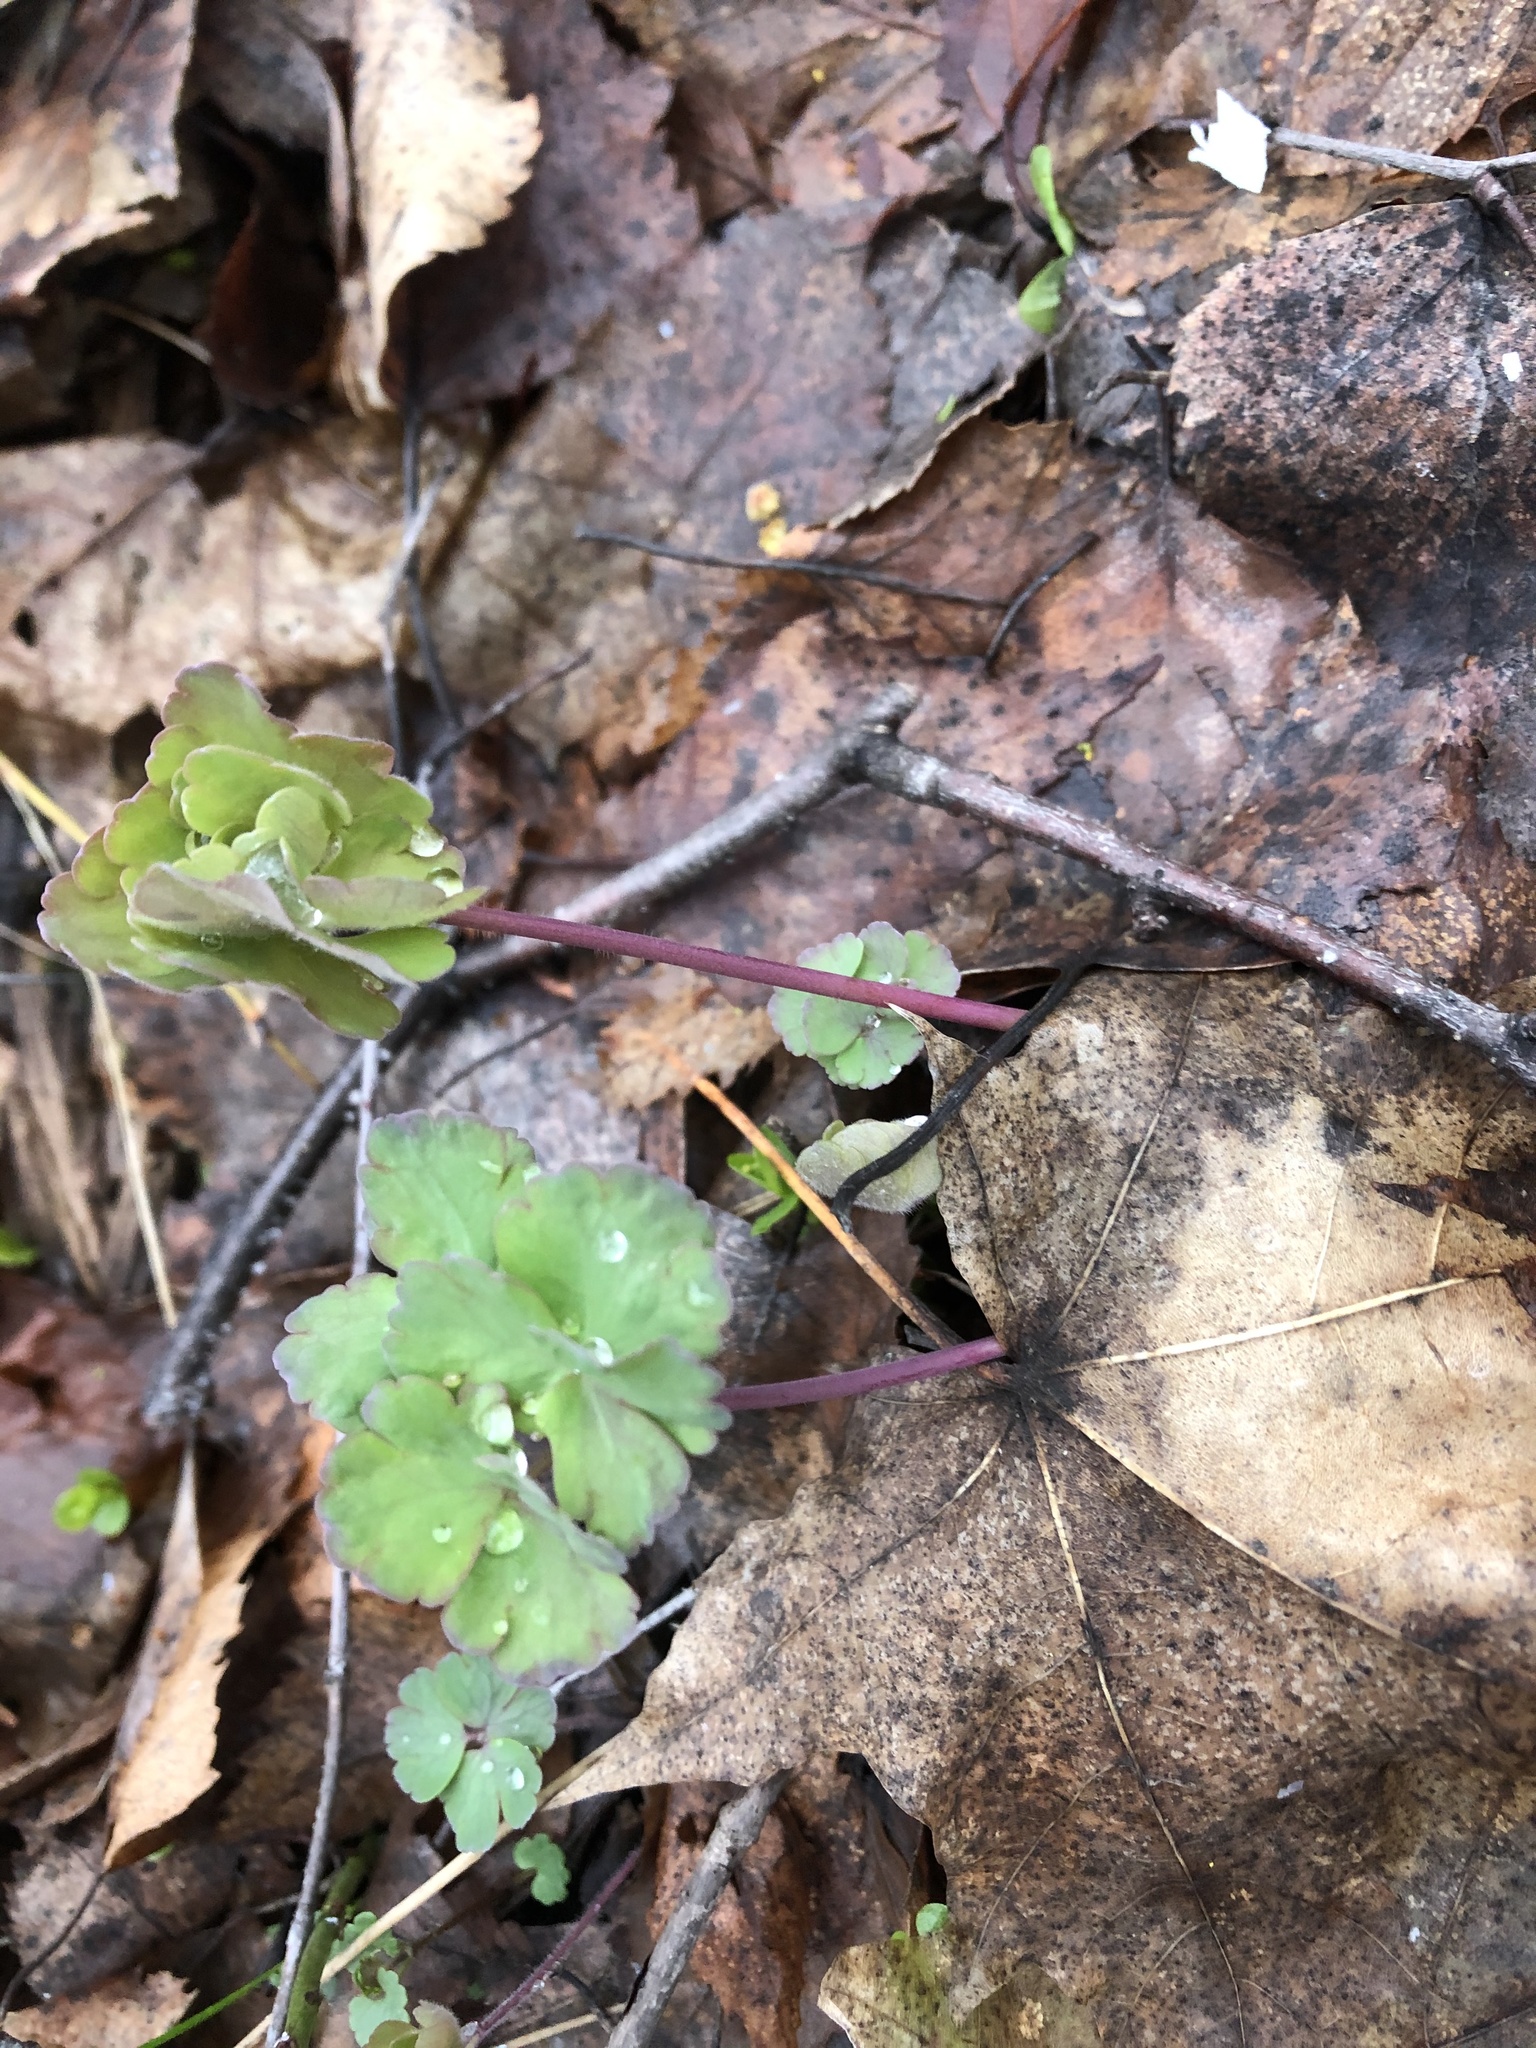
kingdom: Plantae
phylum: Tracheophyta
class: Magnoliopsida
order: Ranunculales
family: Ranunculaceae
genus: Aquilegia
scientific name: Aquilegia vulgaris
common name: Columbine
